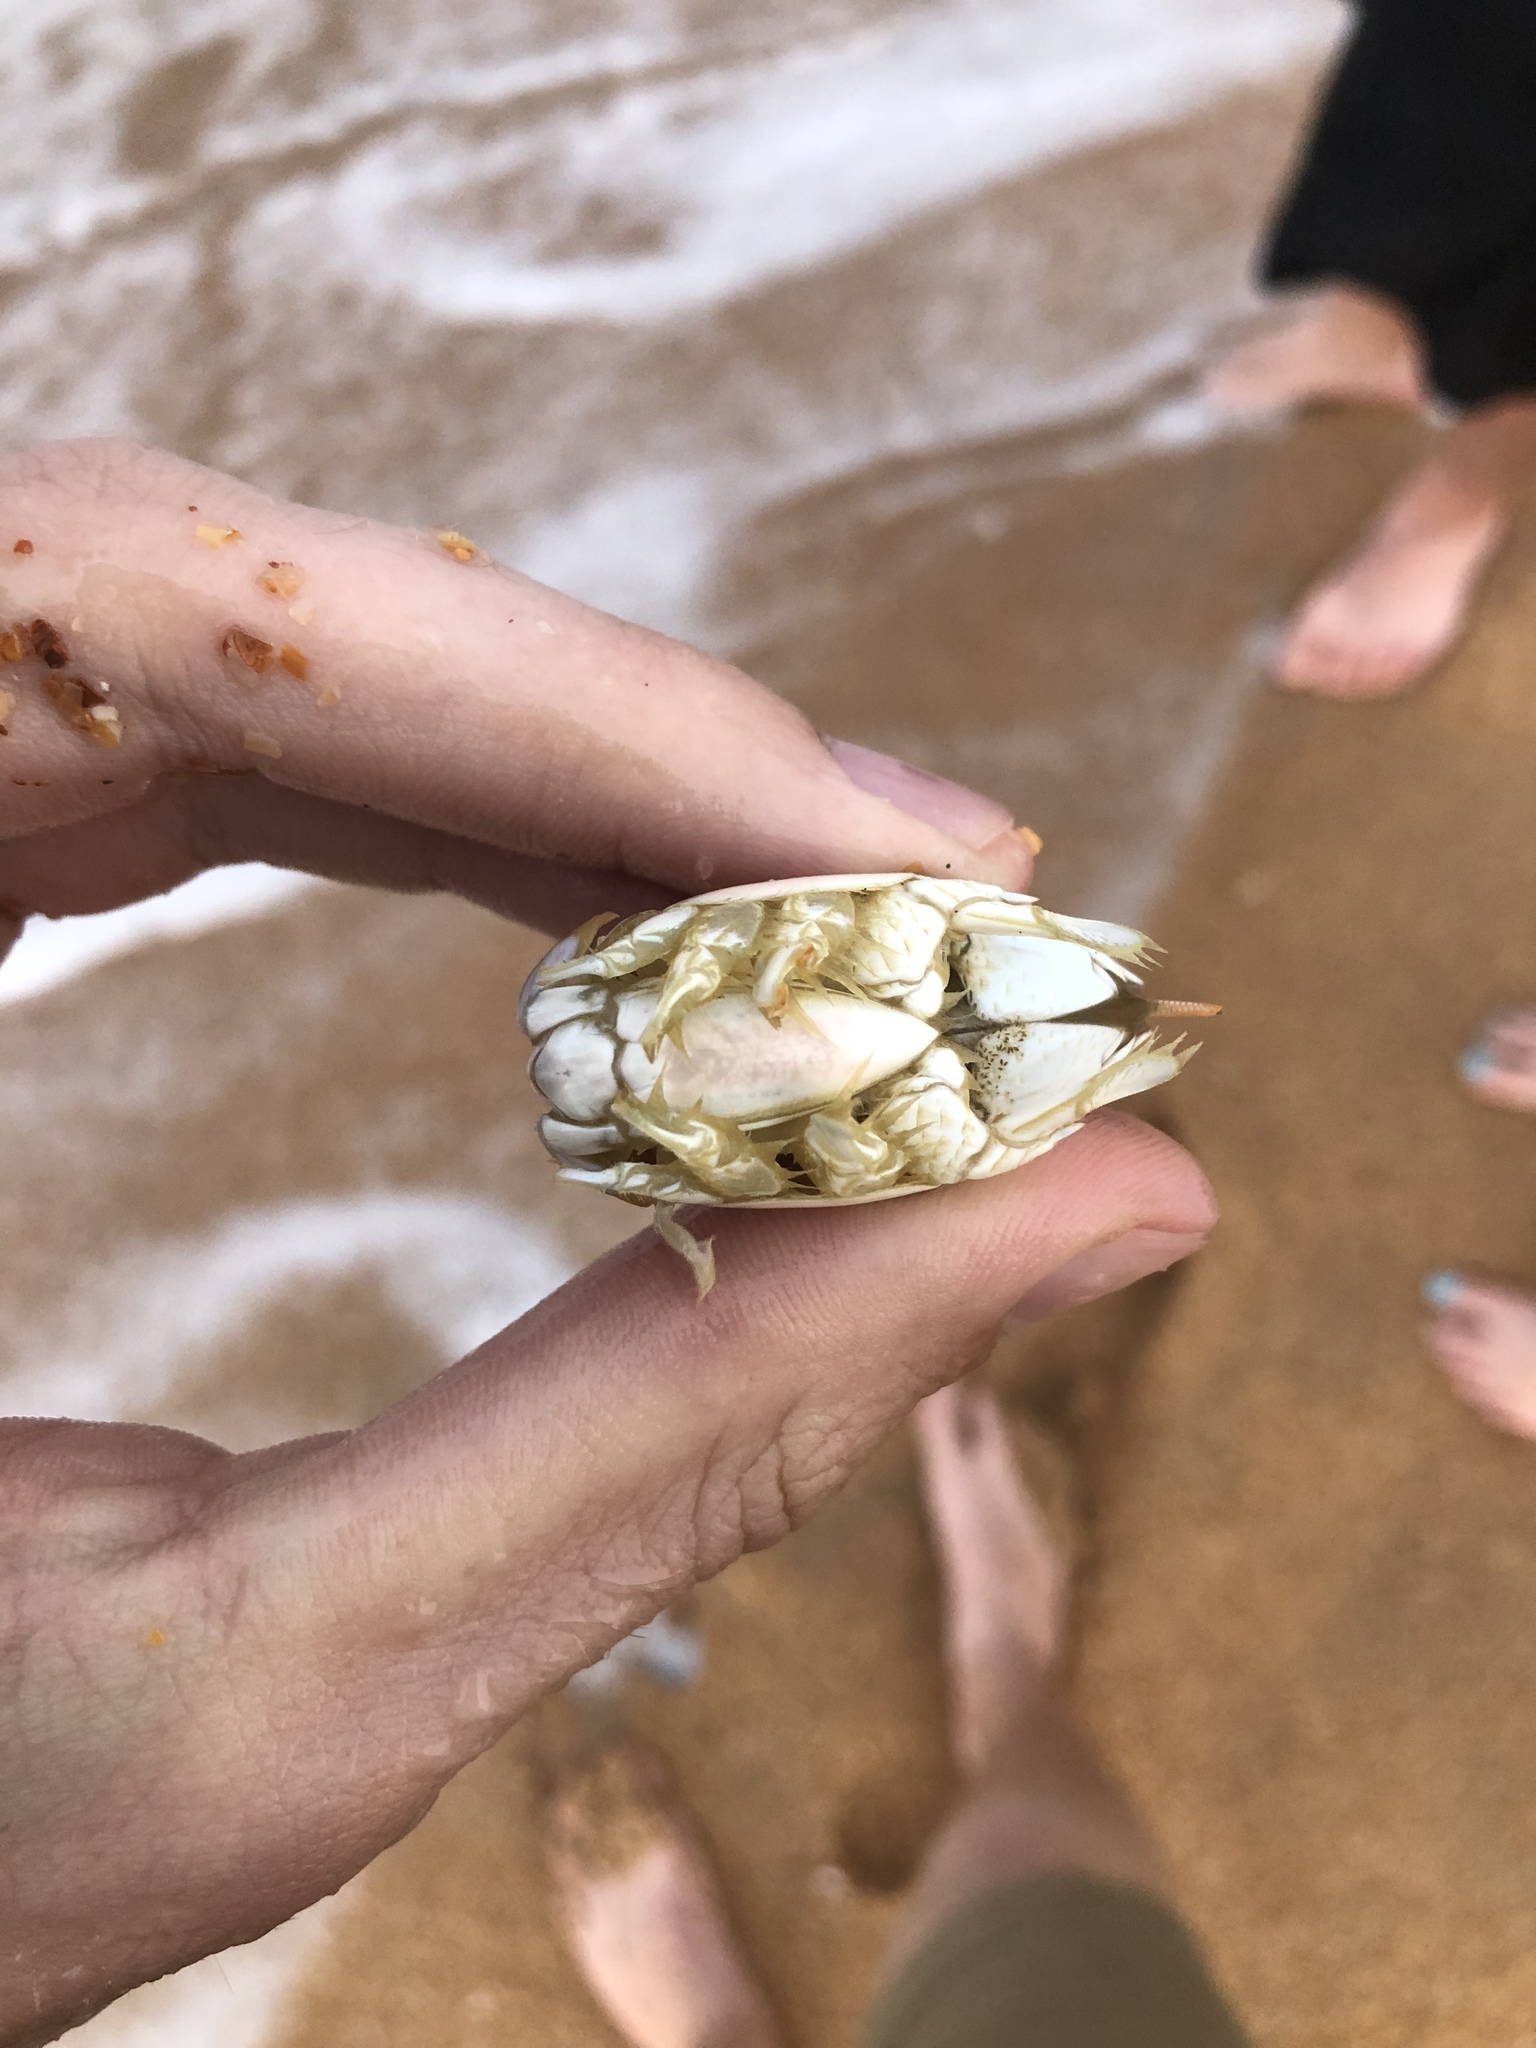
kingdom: Animalia
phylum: Arthropoda
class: Malacostraca
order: Decapoda
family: Hippidae
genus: Emerita
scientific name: Emerita talpoida
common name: Atlantic sand crab
